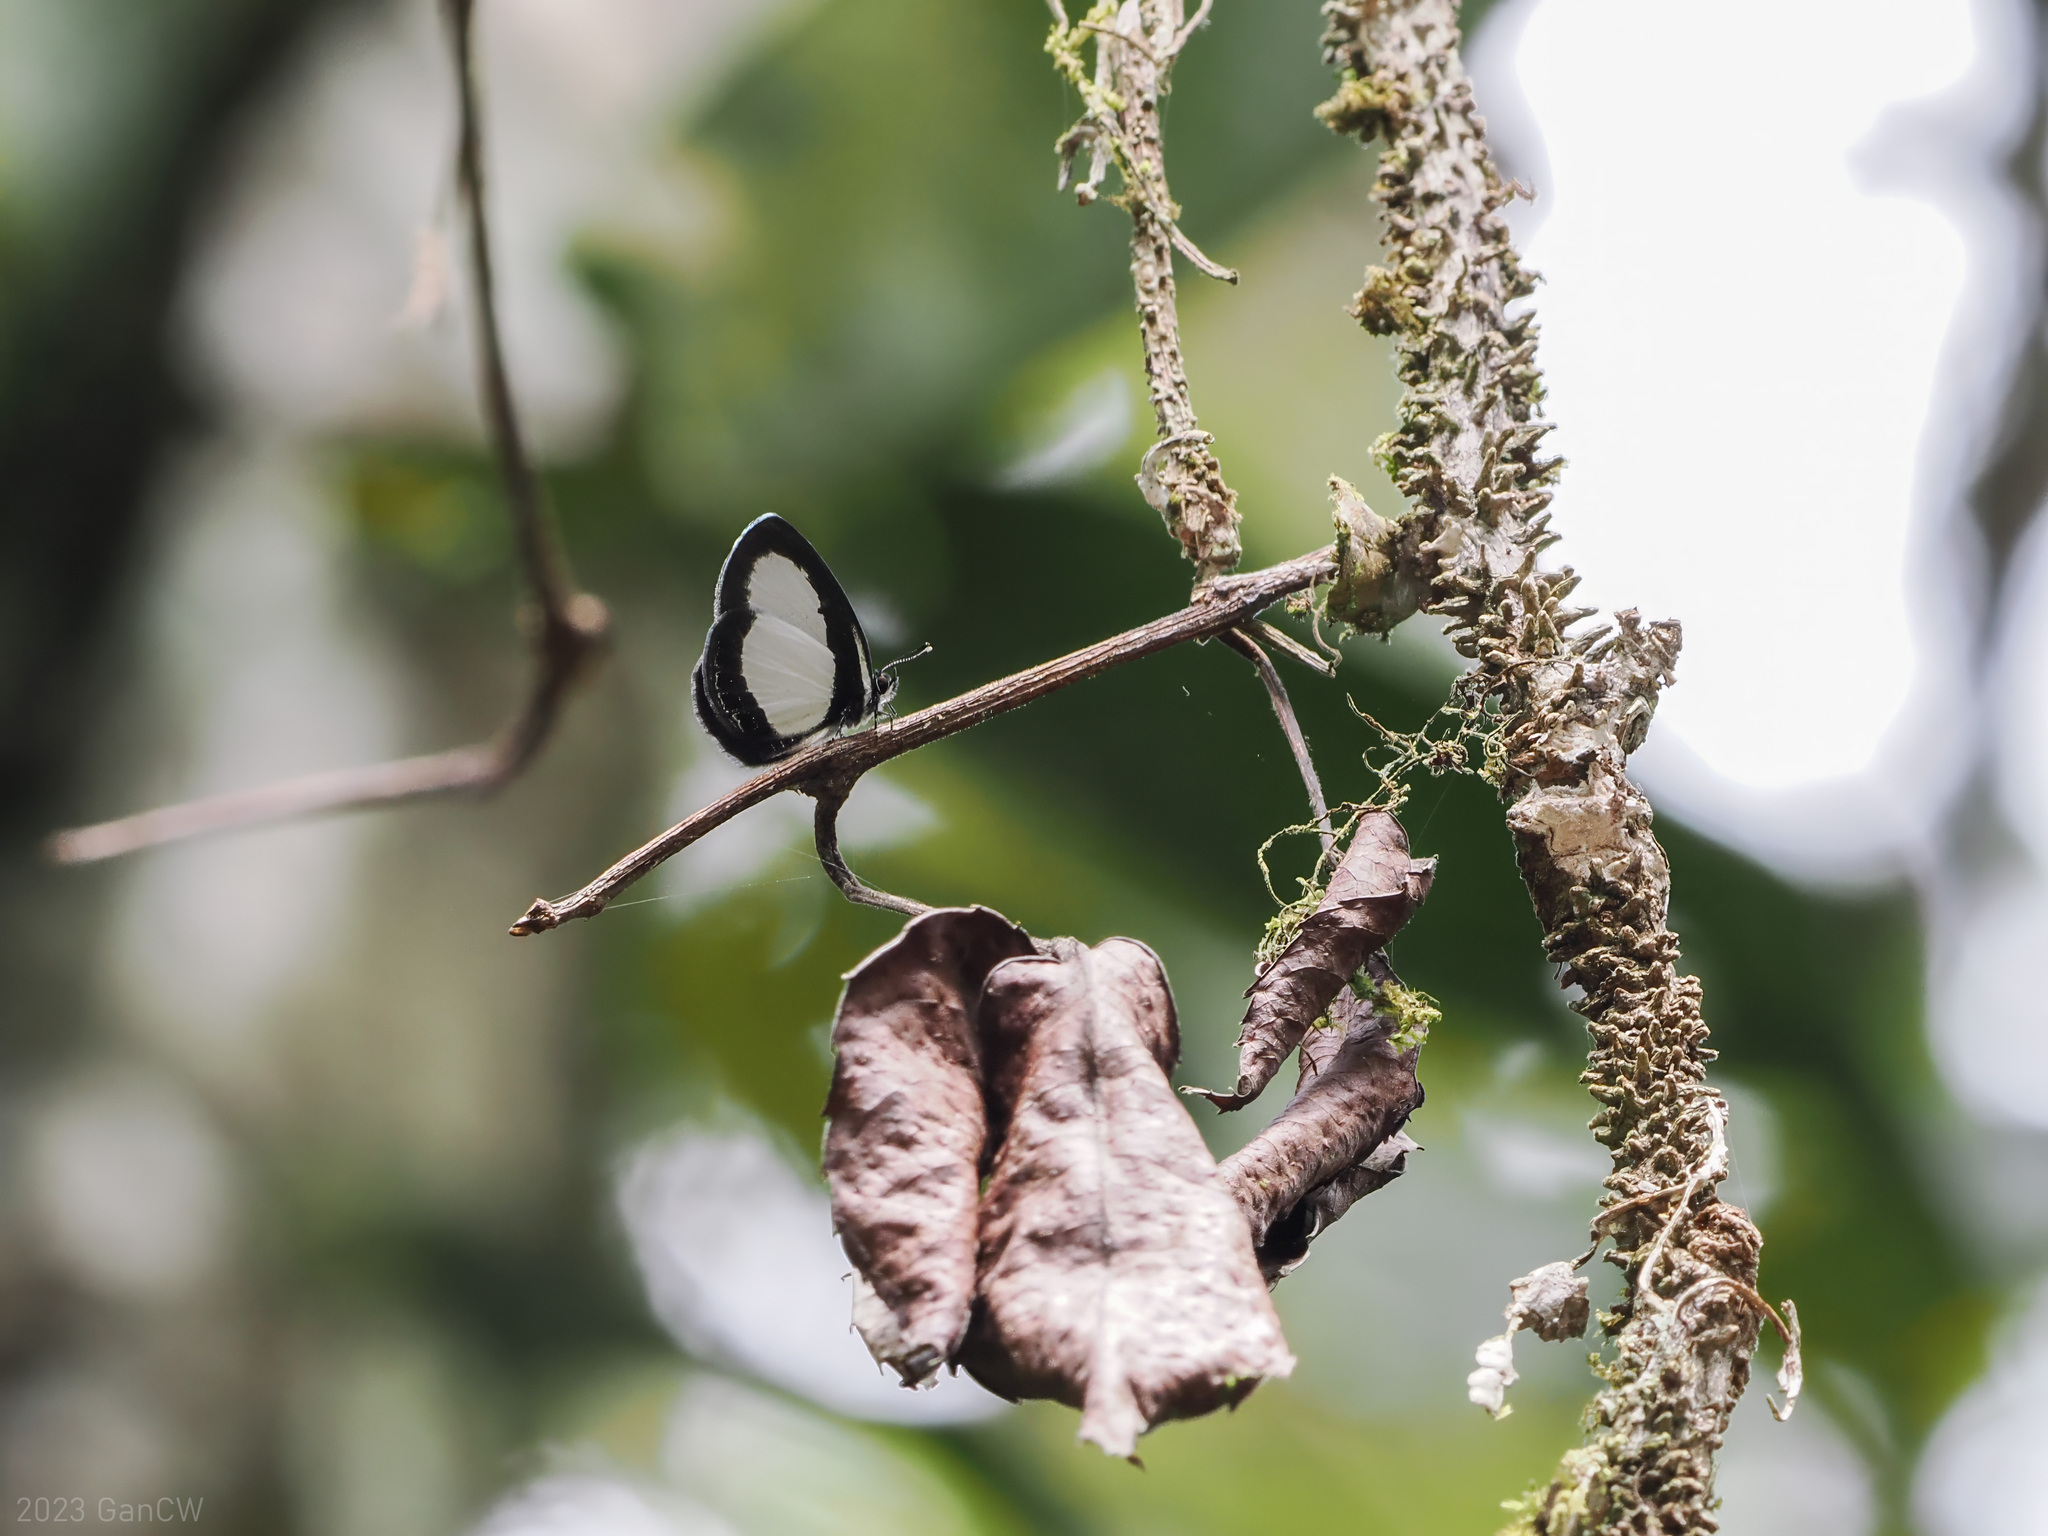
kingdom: Animalia
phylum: Arthropoda
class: Insecta
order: Lepidoptera
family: Lycaenidae
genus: Psychonotis
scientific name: Psychonotis
